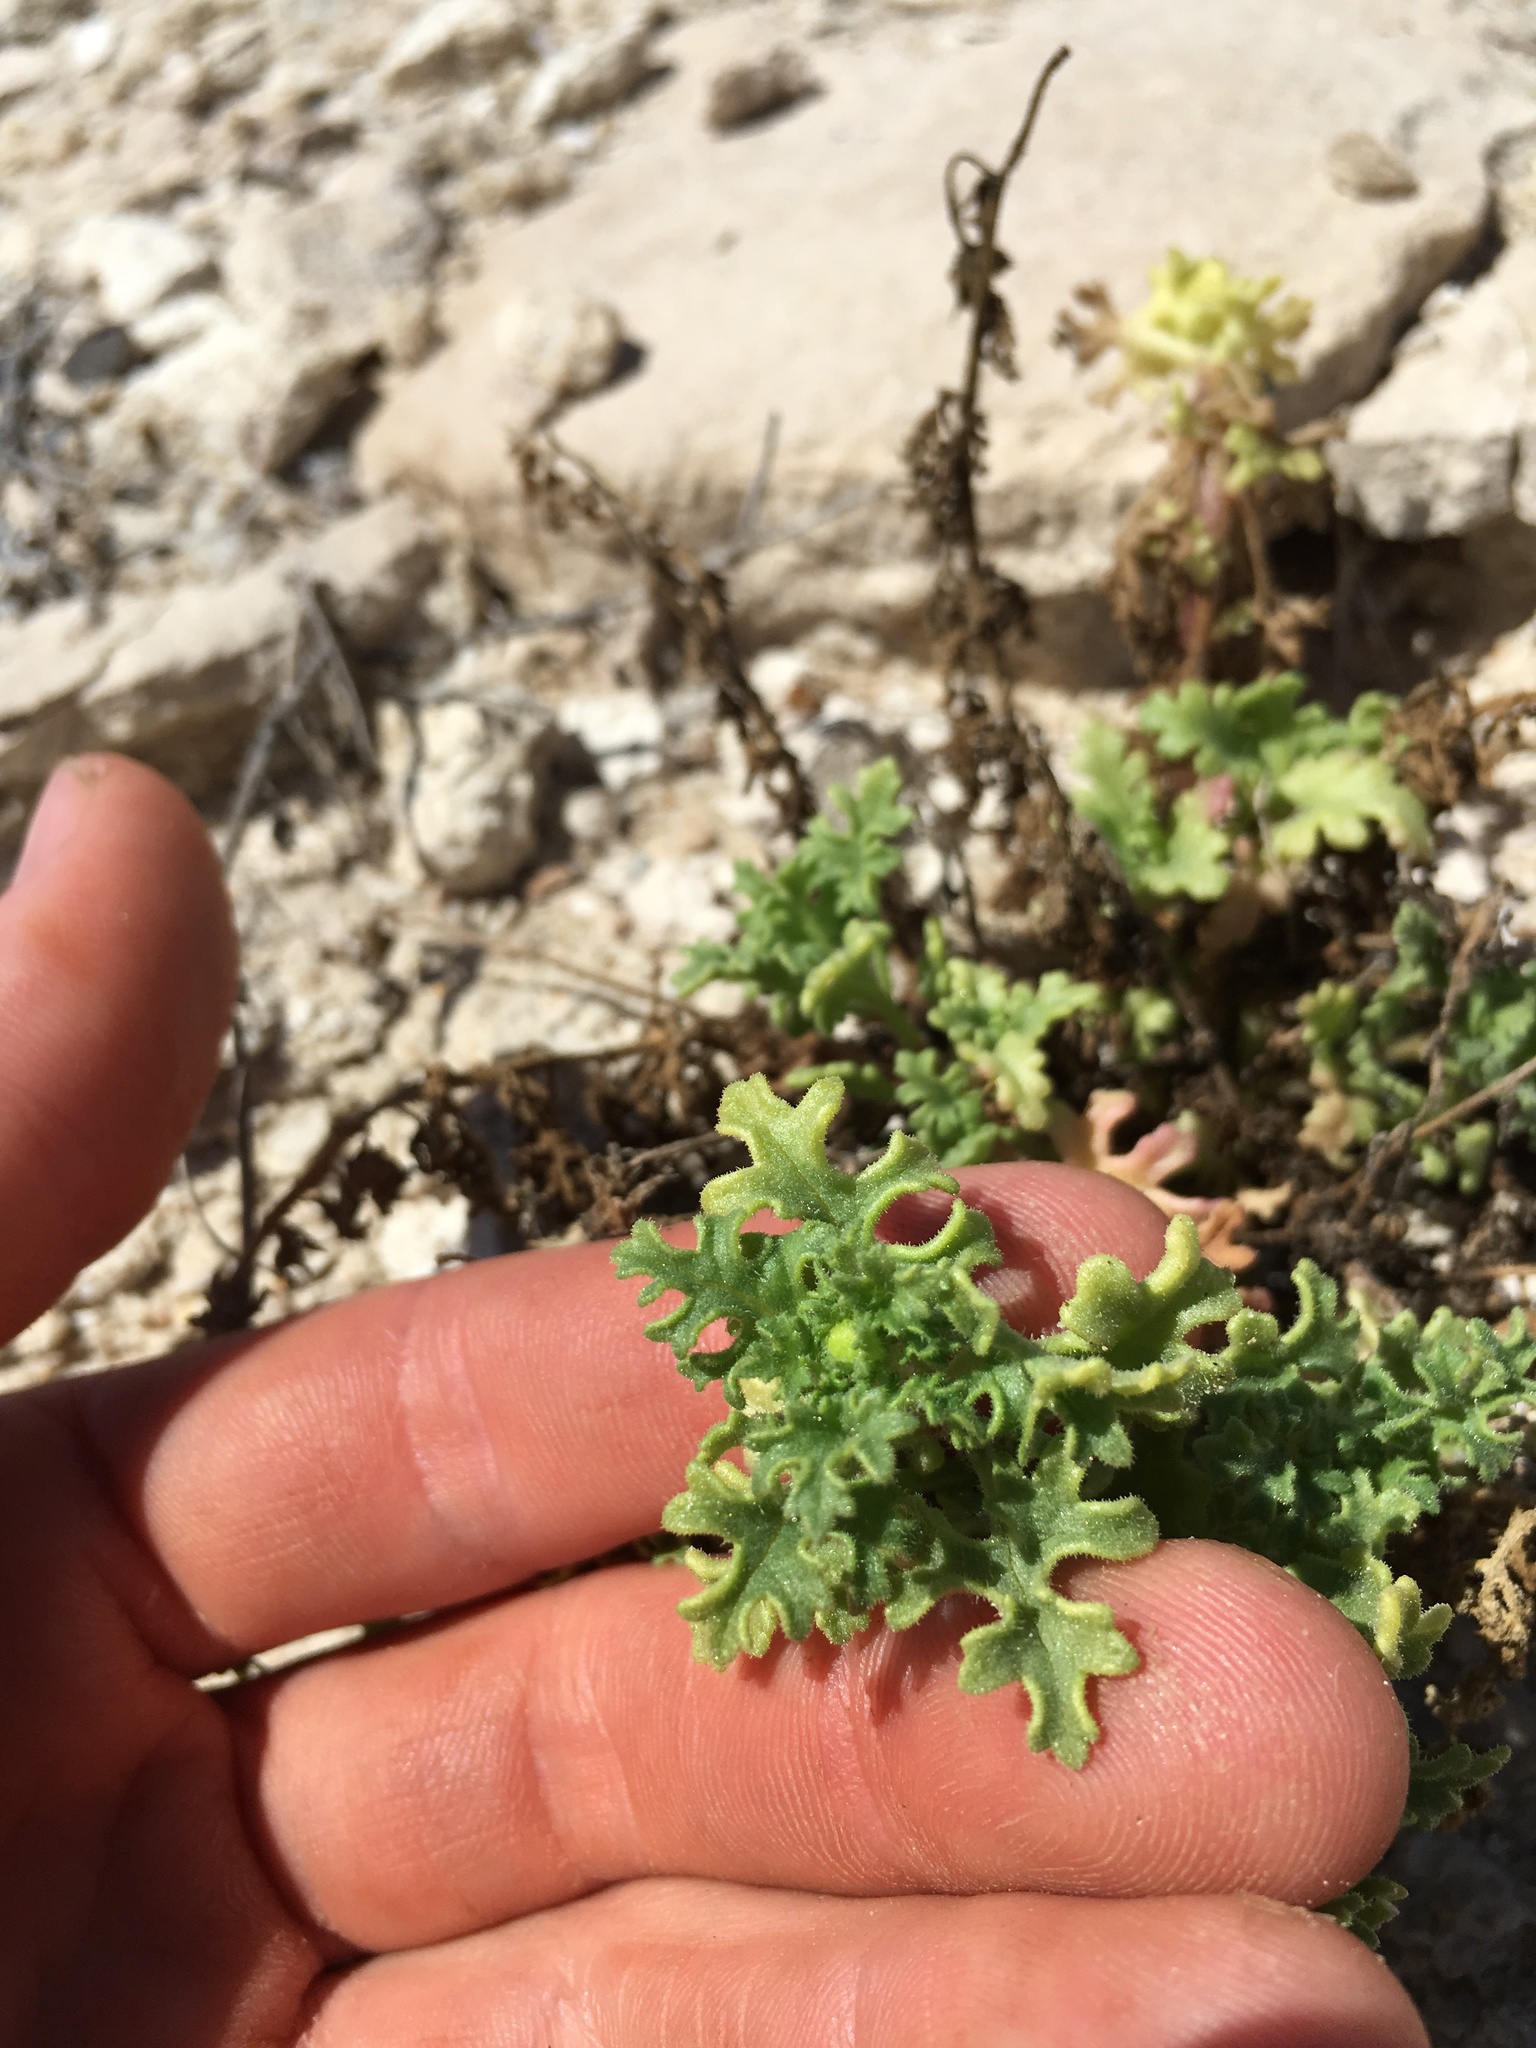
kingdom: Plantae
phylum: Tracheophyta
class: Magnoliopsida
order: Asterales
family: Asteraceae
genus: Perityle
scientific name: Perityle crassifolia
